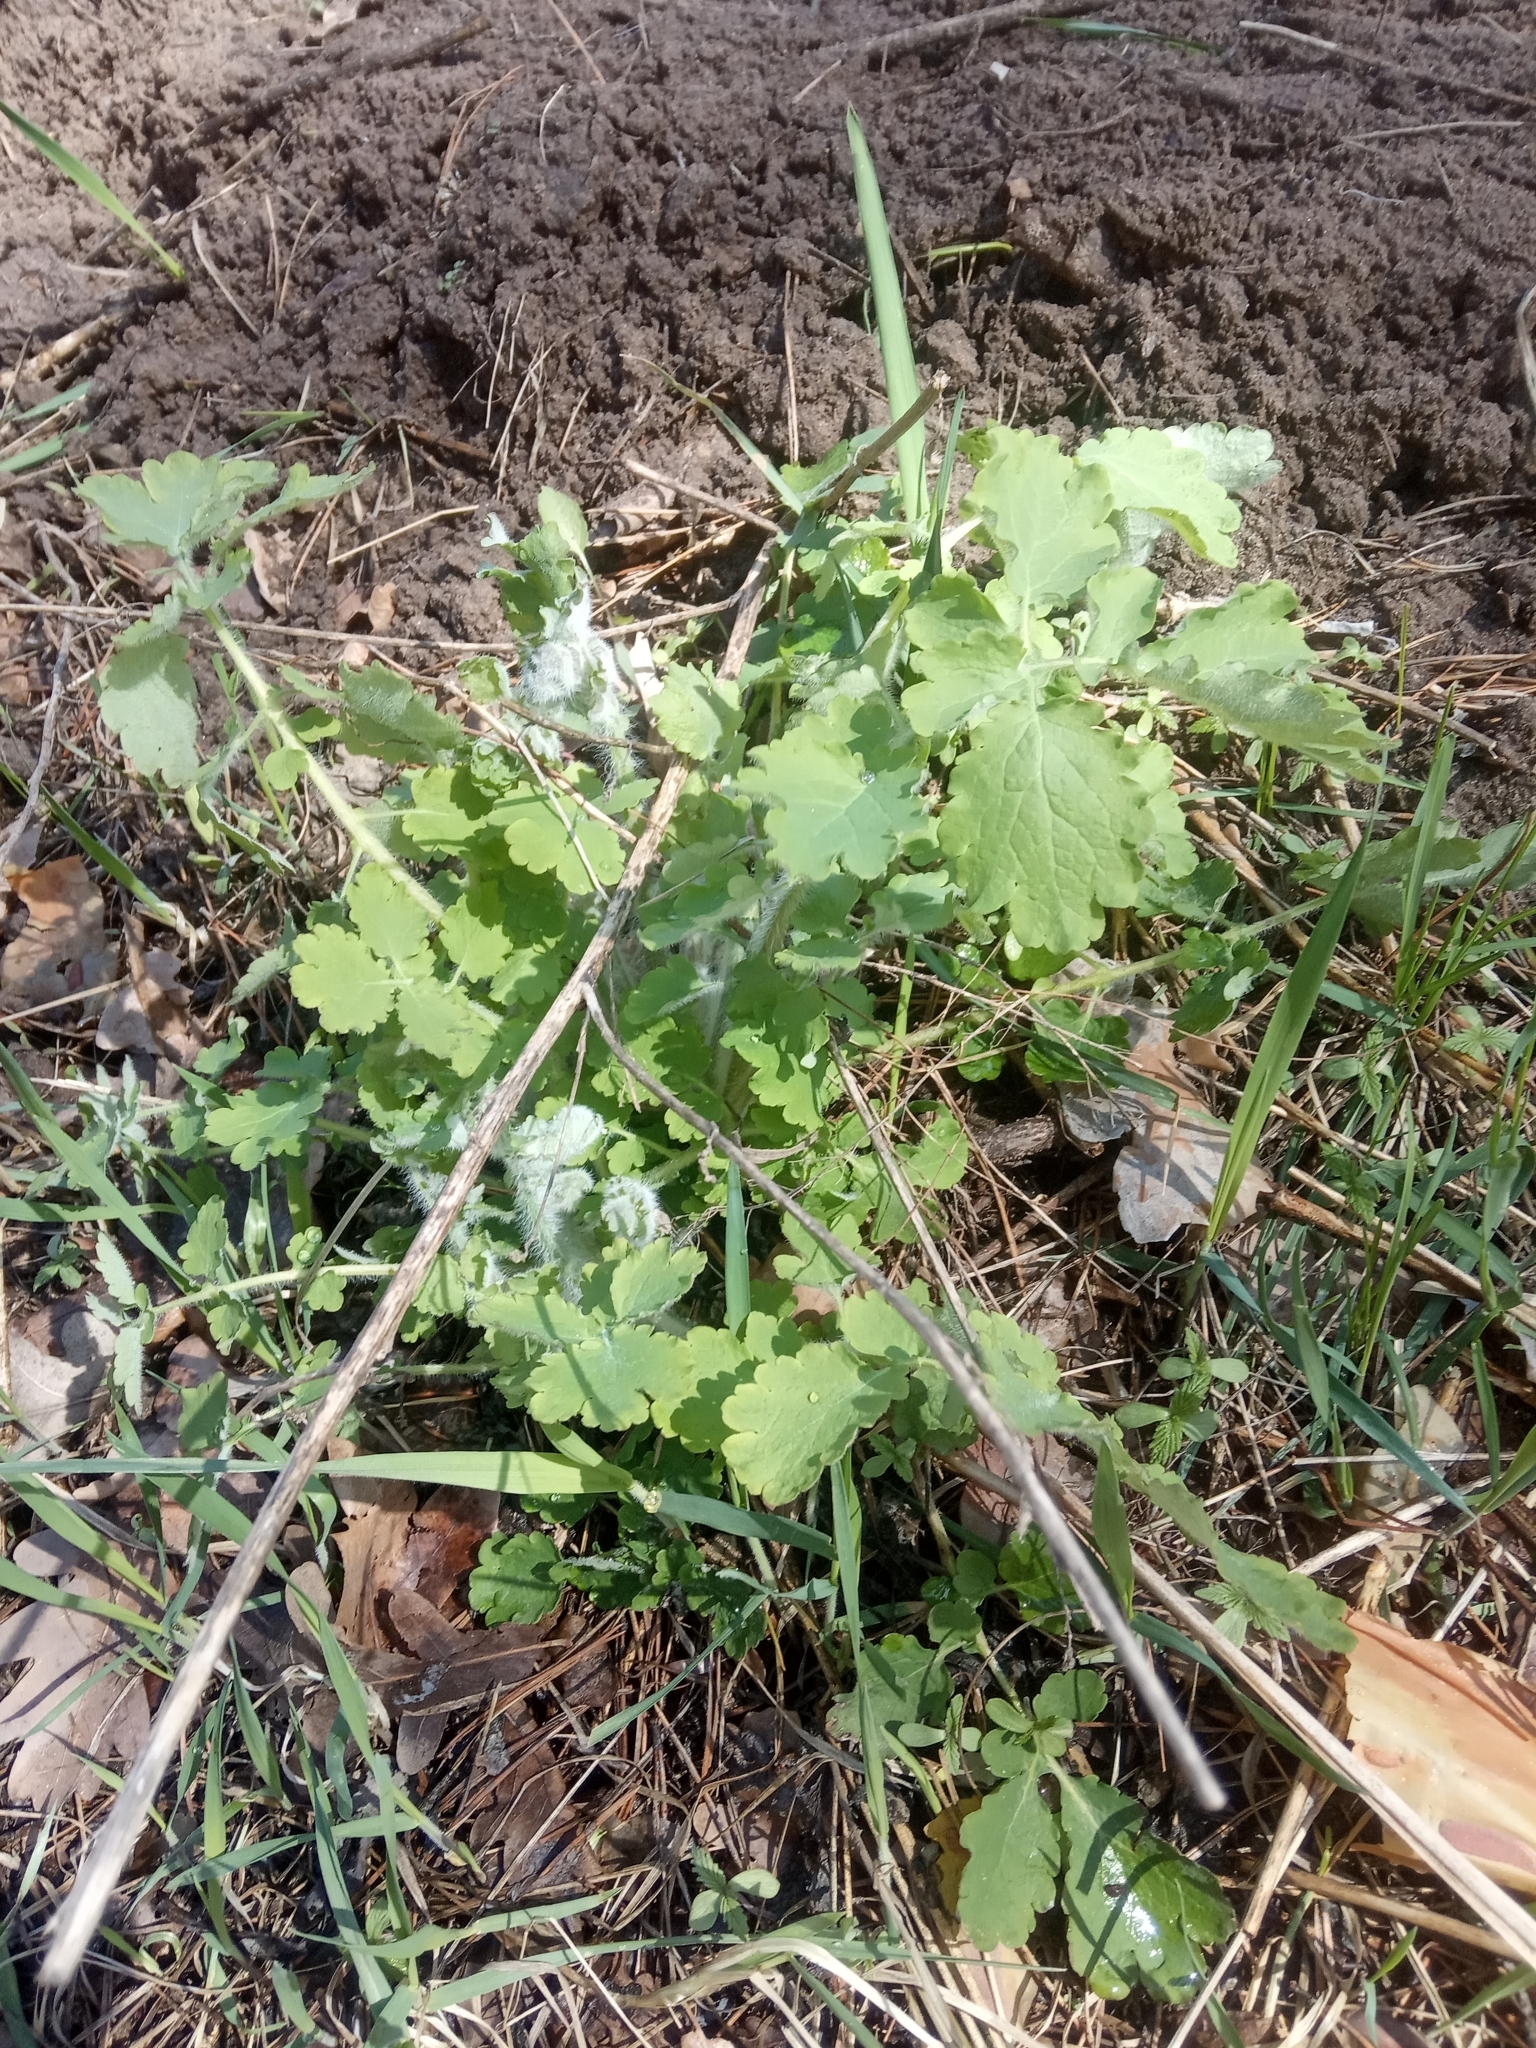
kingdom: Plantae
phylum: Tracheophyta
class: Magnoliopsida
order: Ranunculales
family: Papaveraceae
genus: Chelidonium
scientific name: Chelidonium majus
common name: Greater celandine
